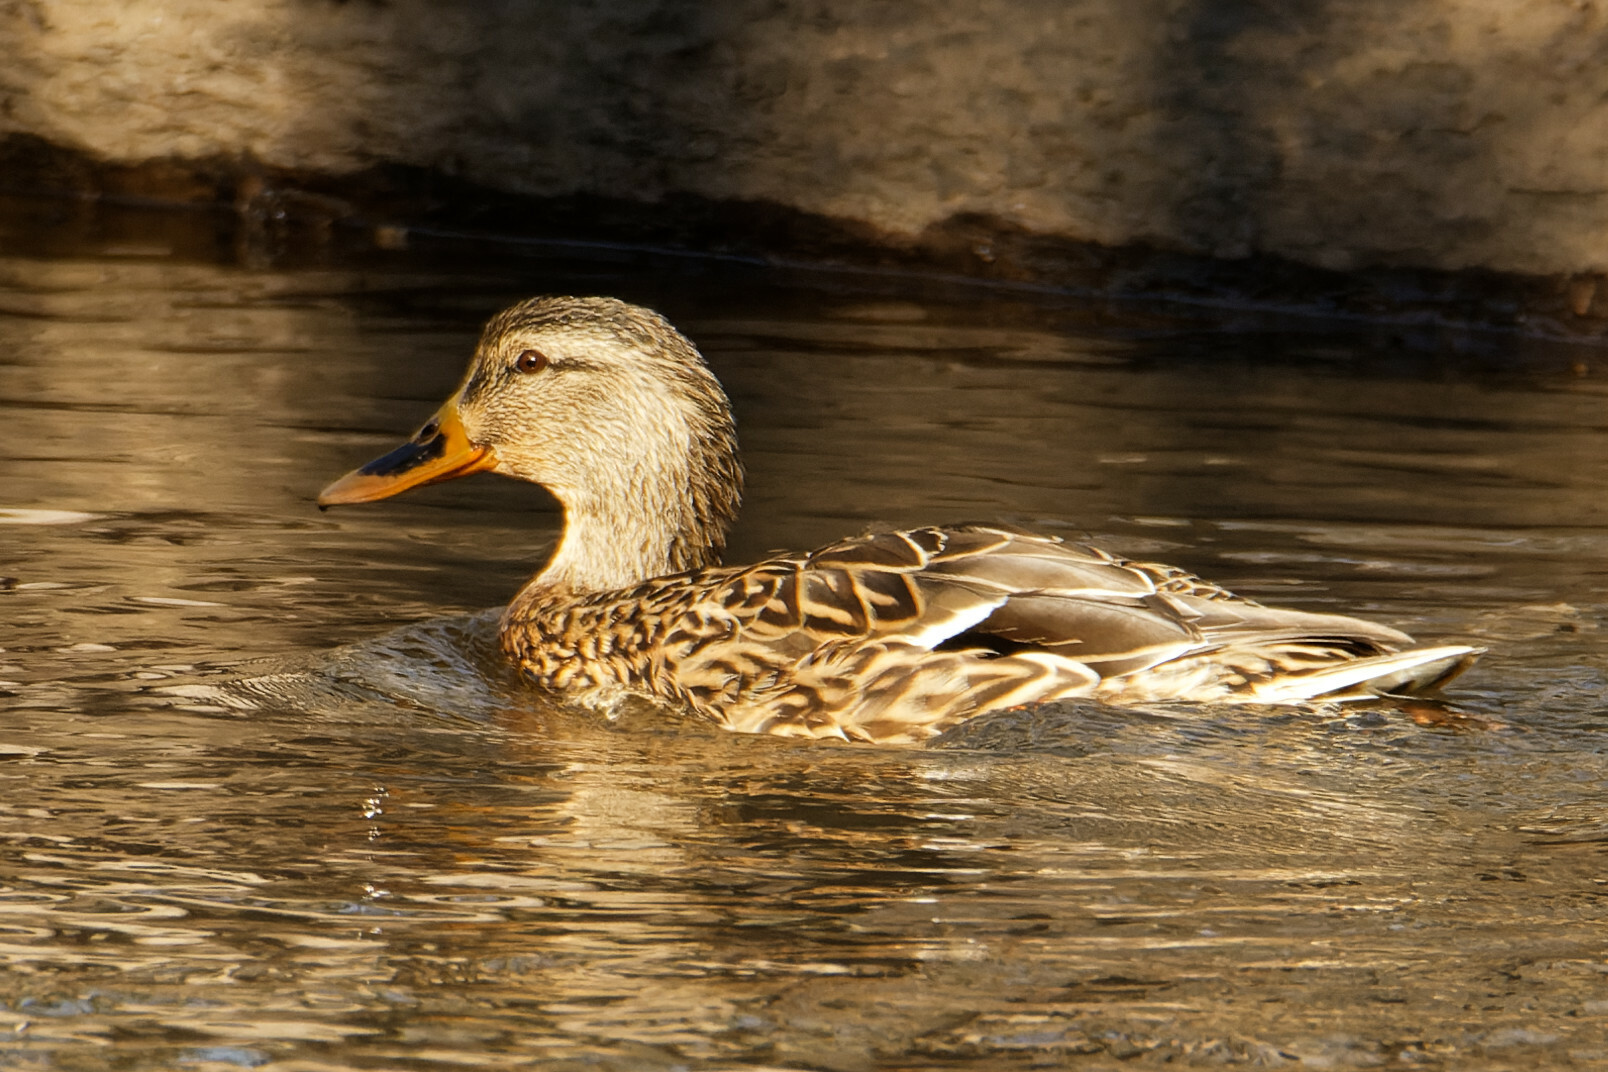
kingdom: Animalia
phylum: Chordata
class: Aves
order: Anseriformes
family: Anatidae
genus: Anas
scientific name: Anas platyrhynchos
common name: Mallard
